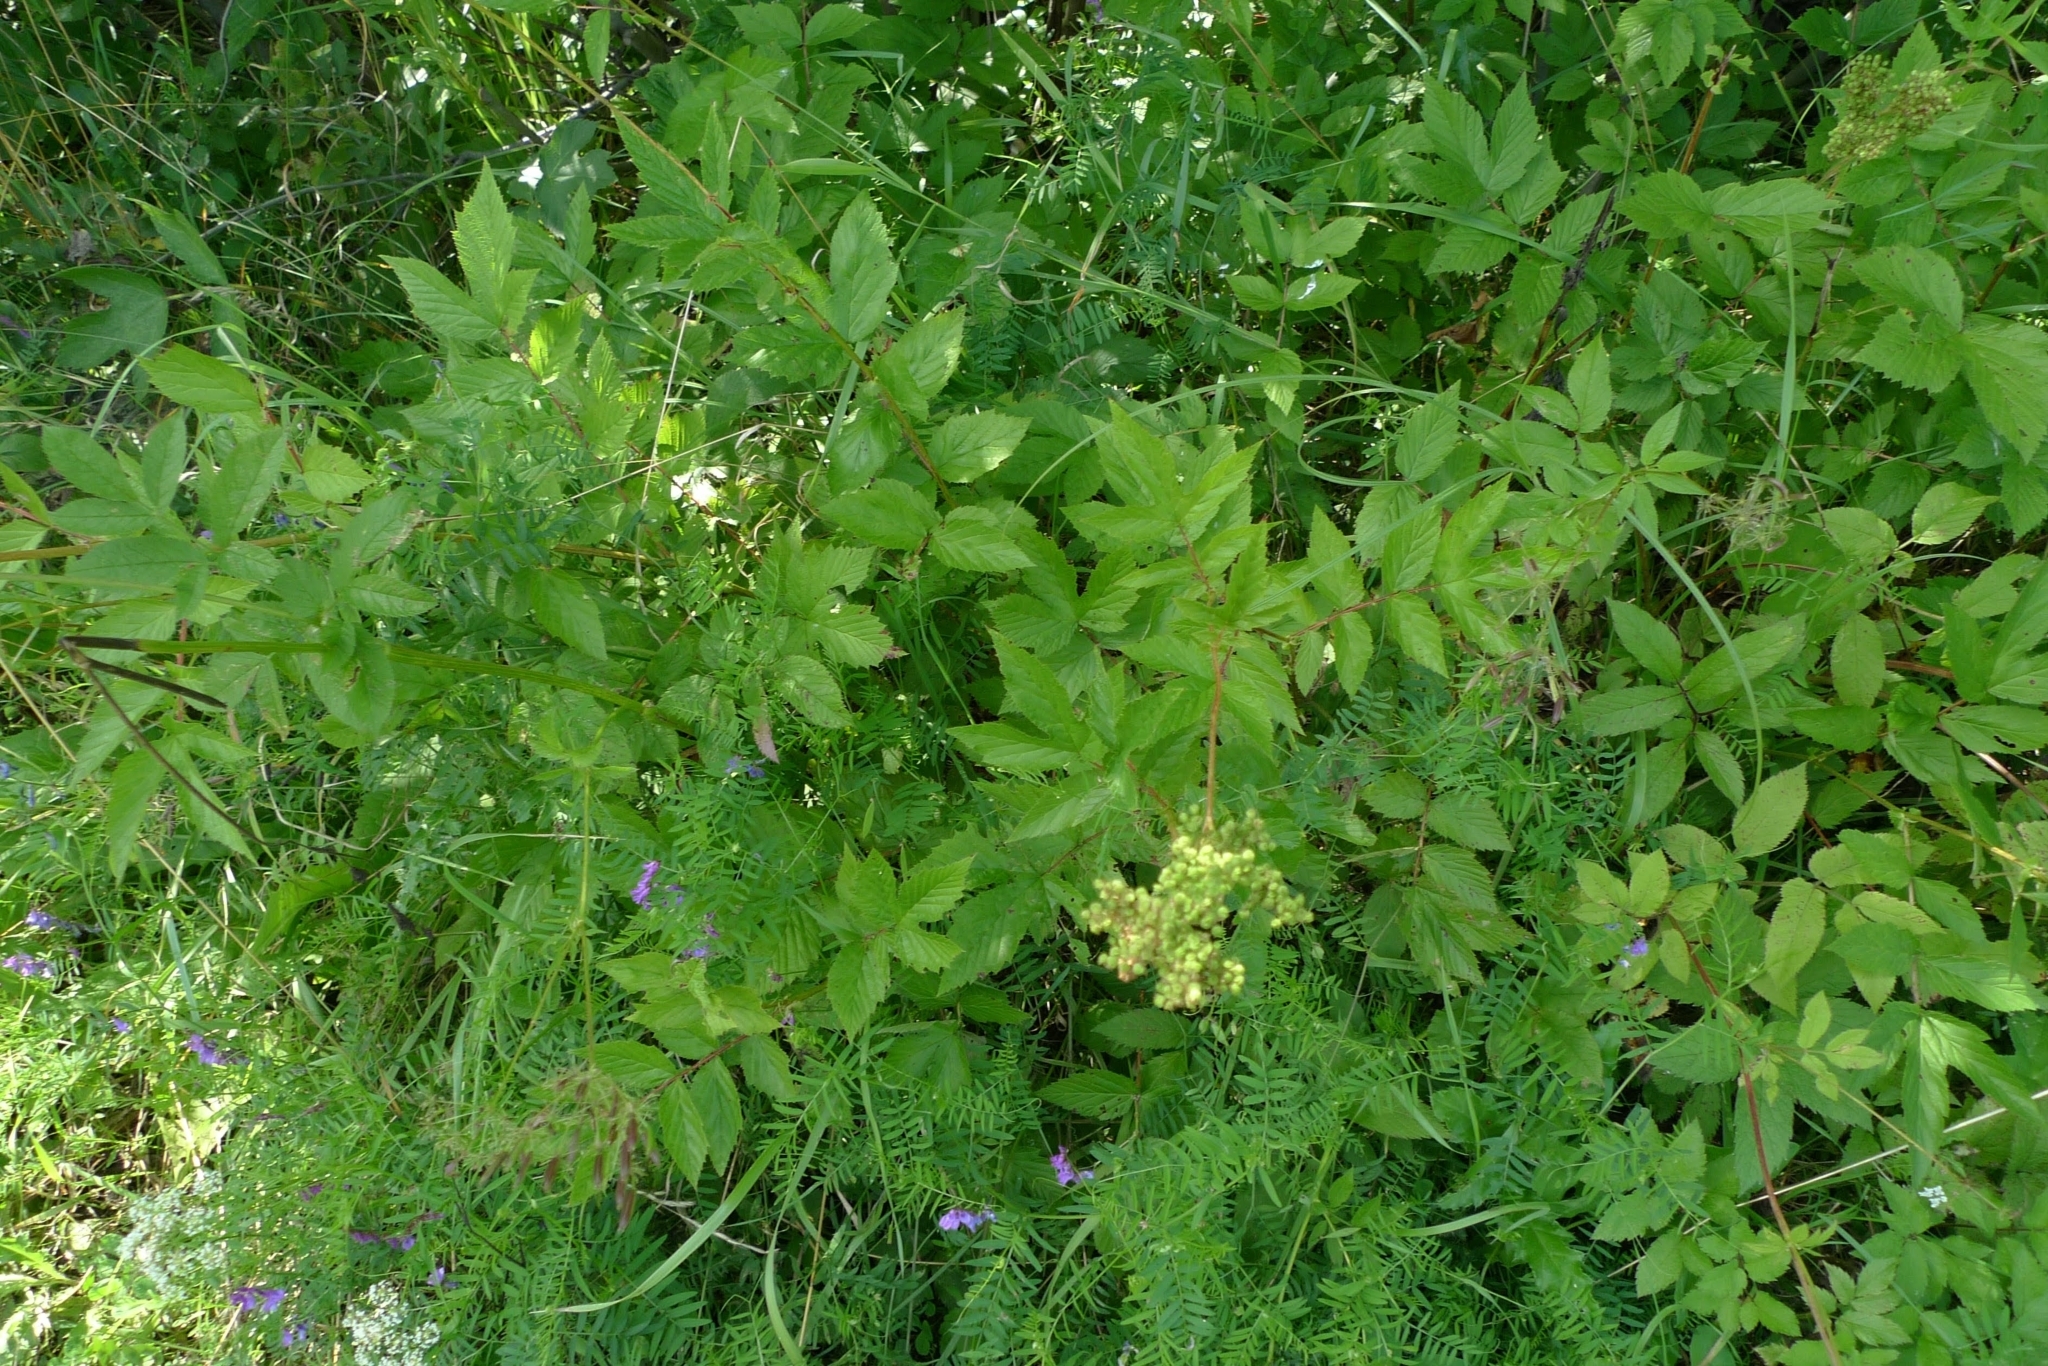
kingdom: Plantae
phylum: Tracheophyta
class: Magnoliopsida
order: Rosales
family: Rosaceae
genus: Filipendula
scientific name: Filipendula ulmaria
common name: Meadowsweet
